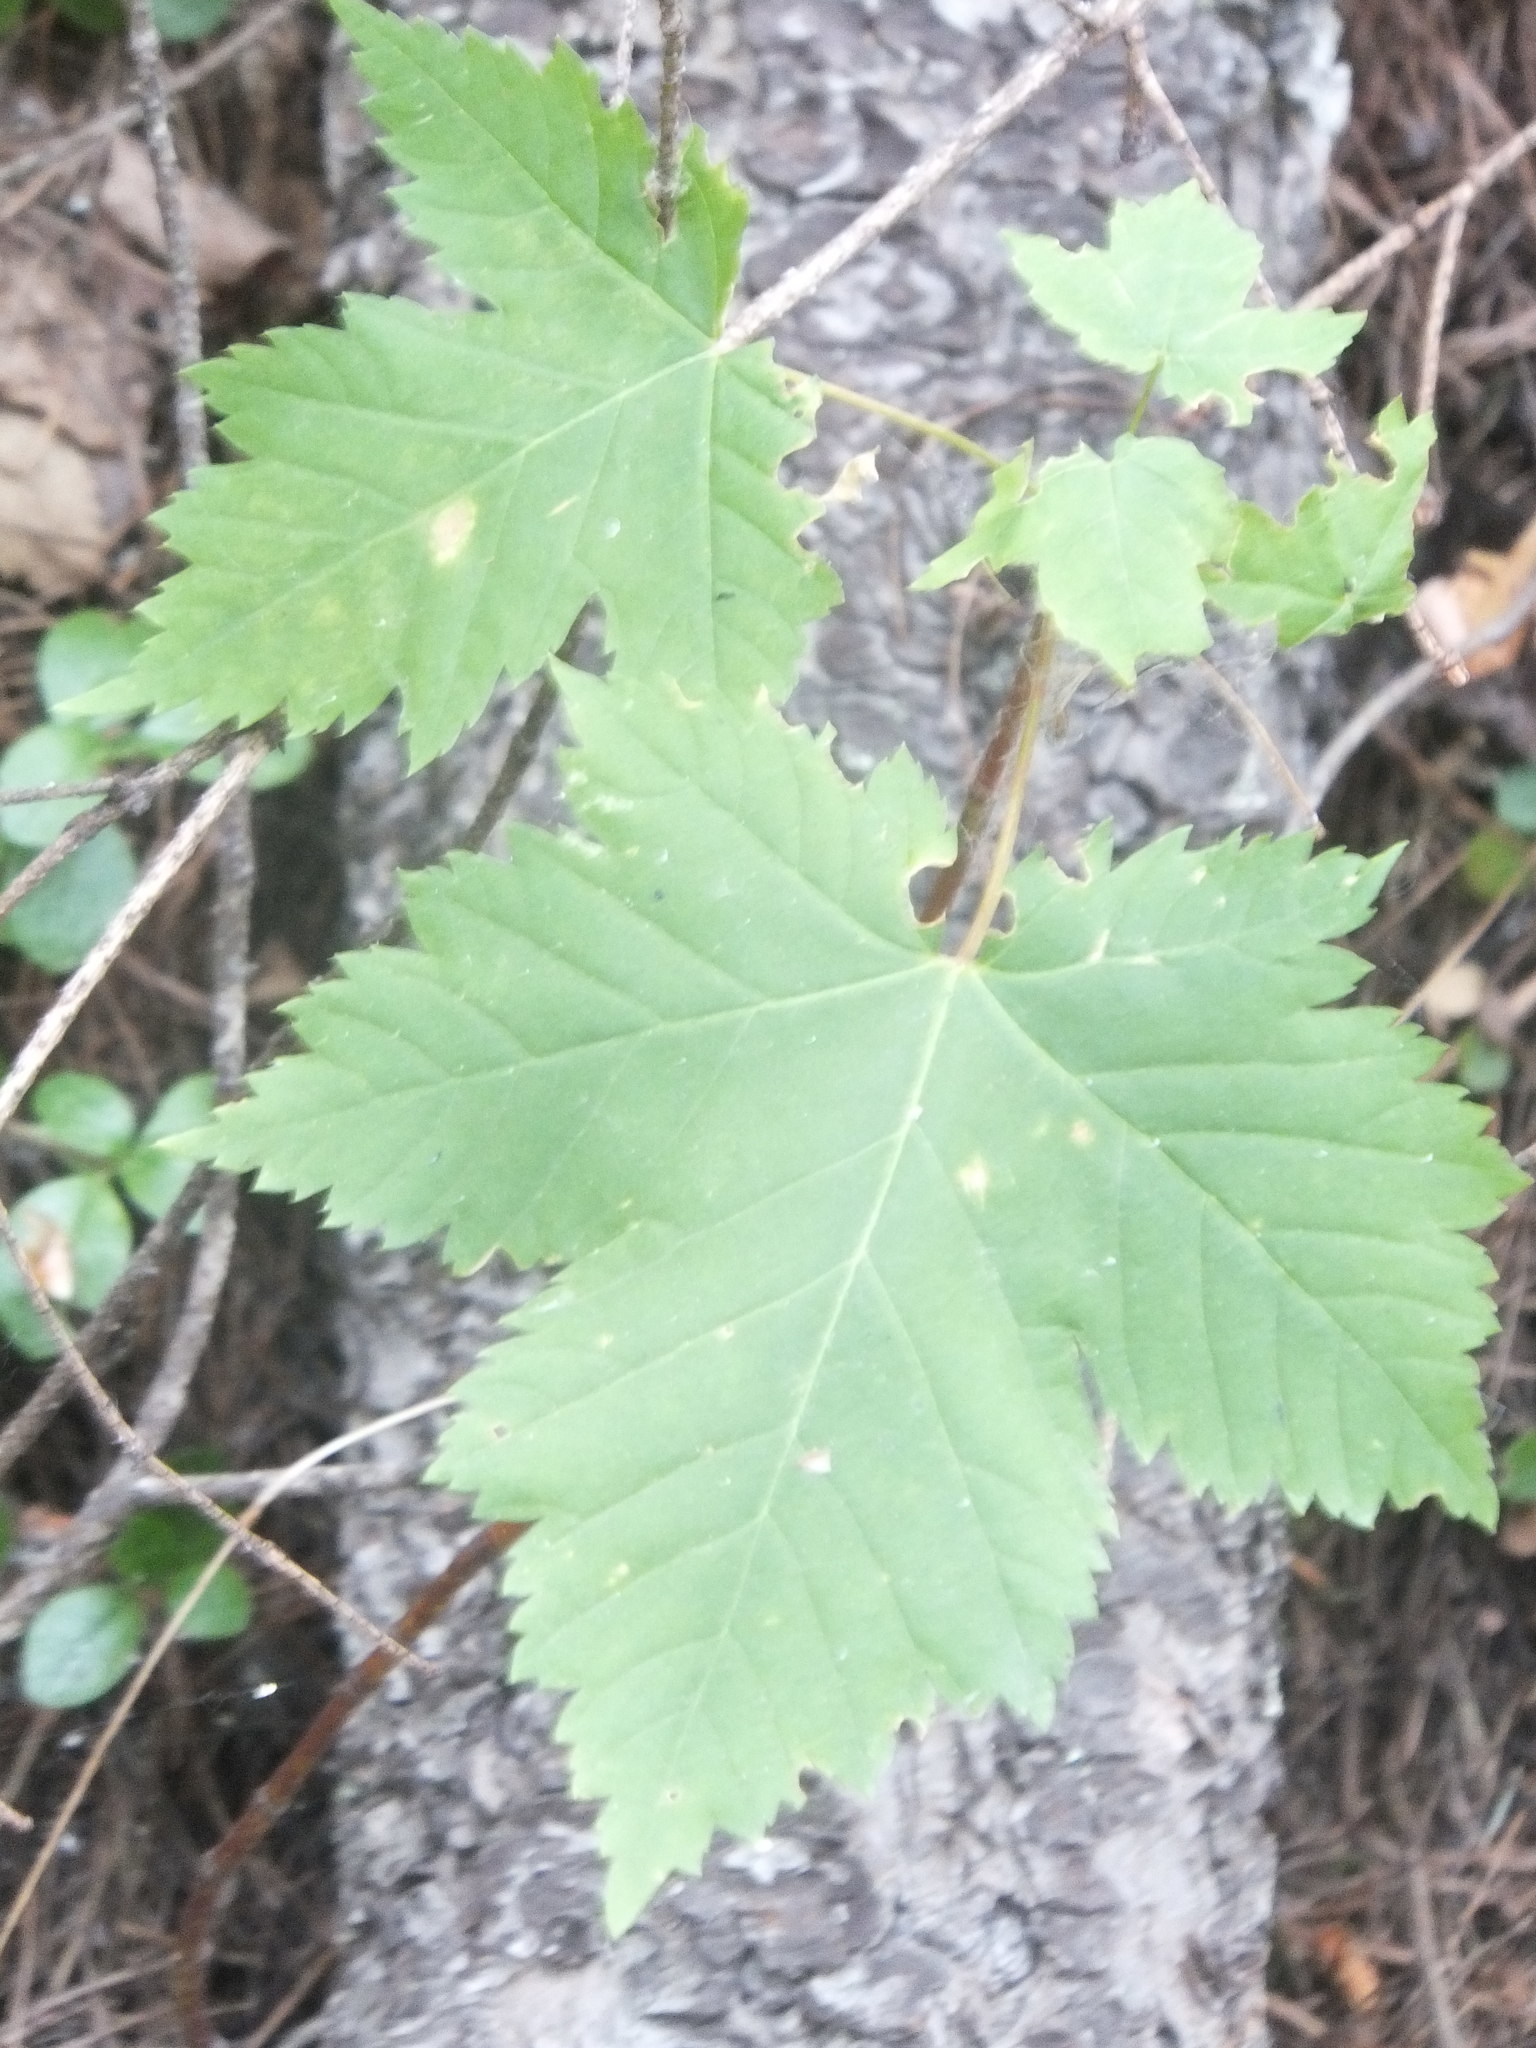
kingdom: Plantae
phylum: Tracheophyta
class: Magnoliopsida
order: Sapindales
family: Sapindaceae
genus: Acer
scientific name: Acer glabrum
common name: Rocky mountain maple
